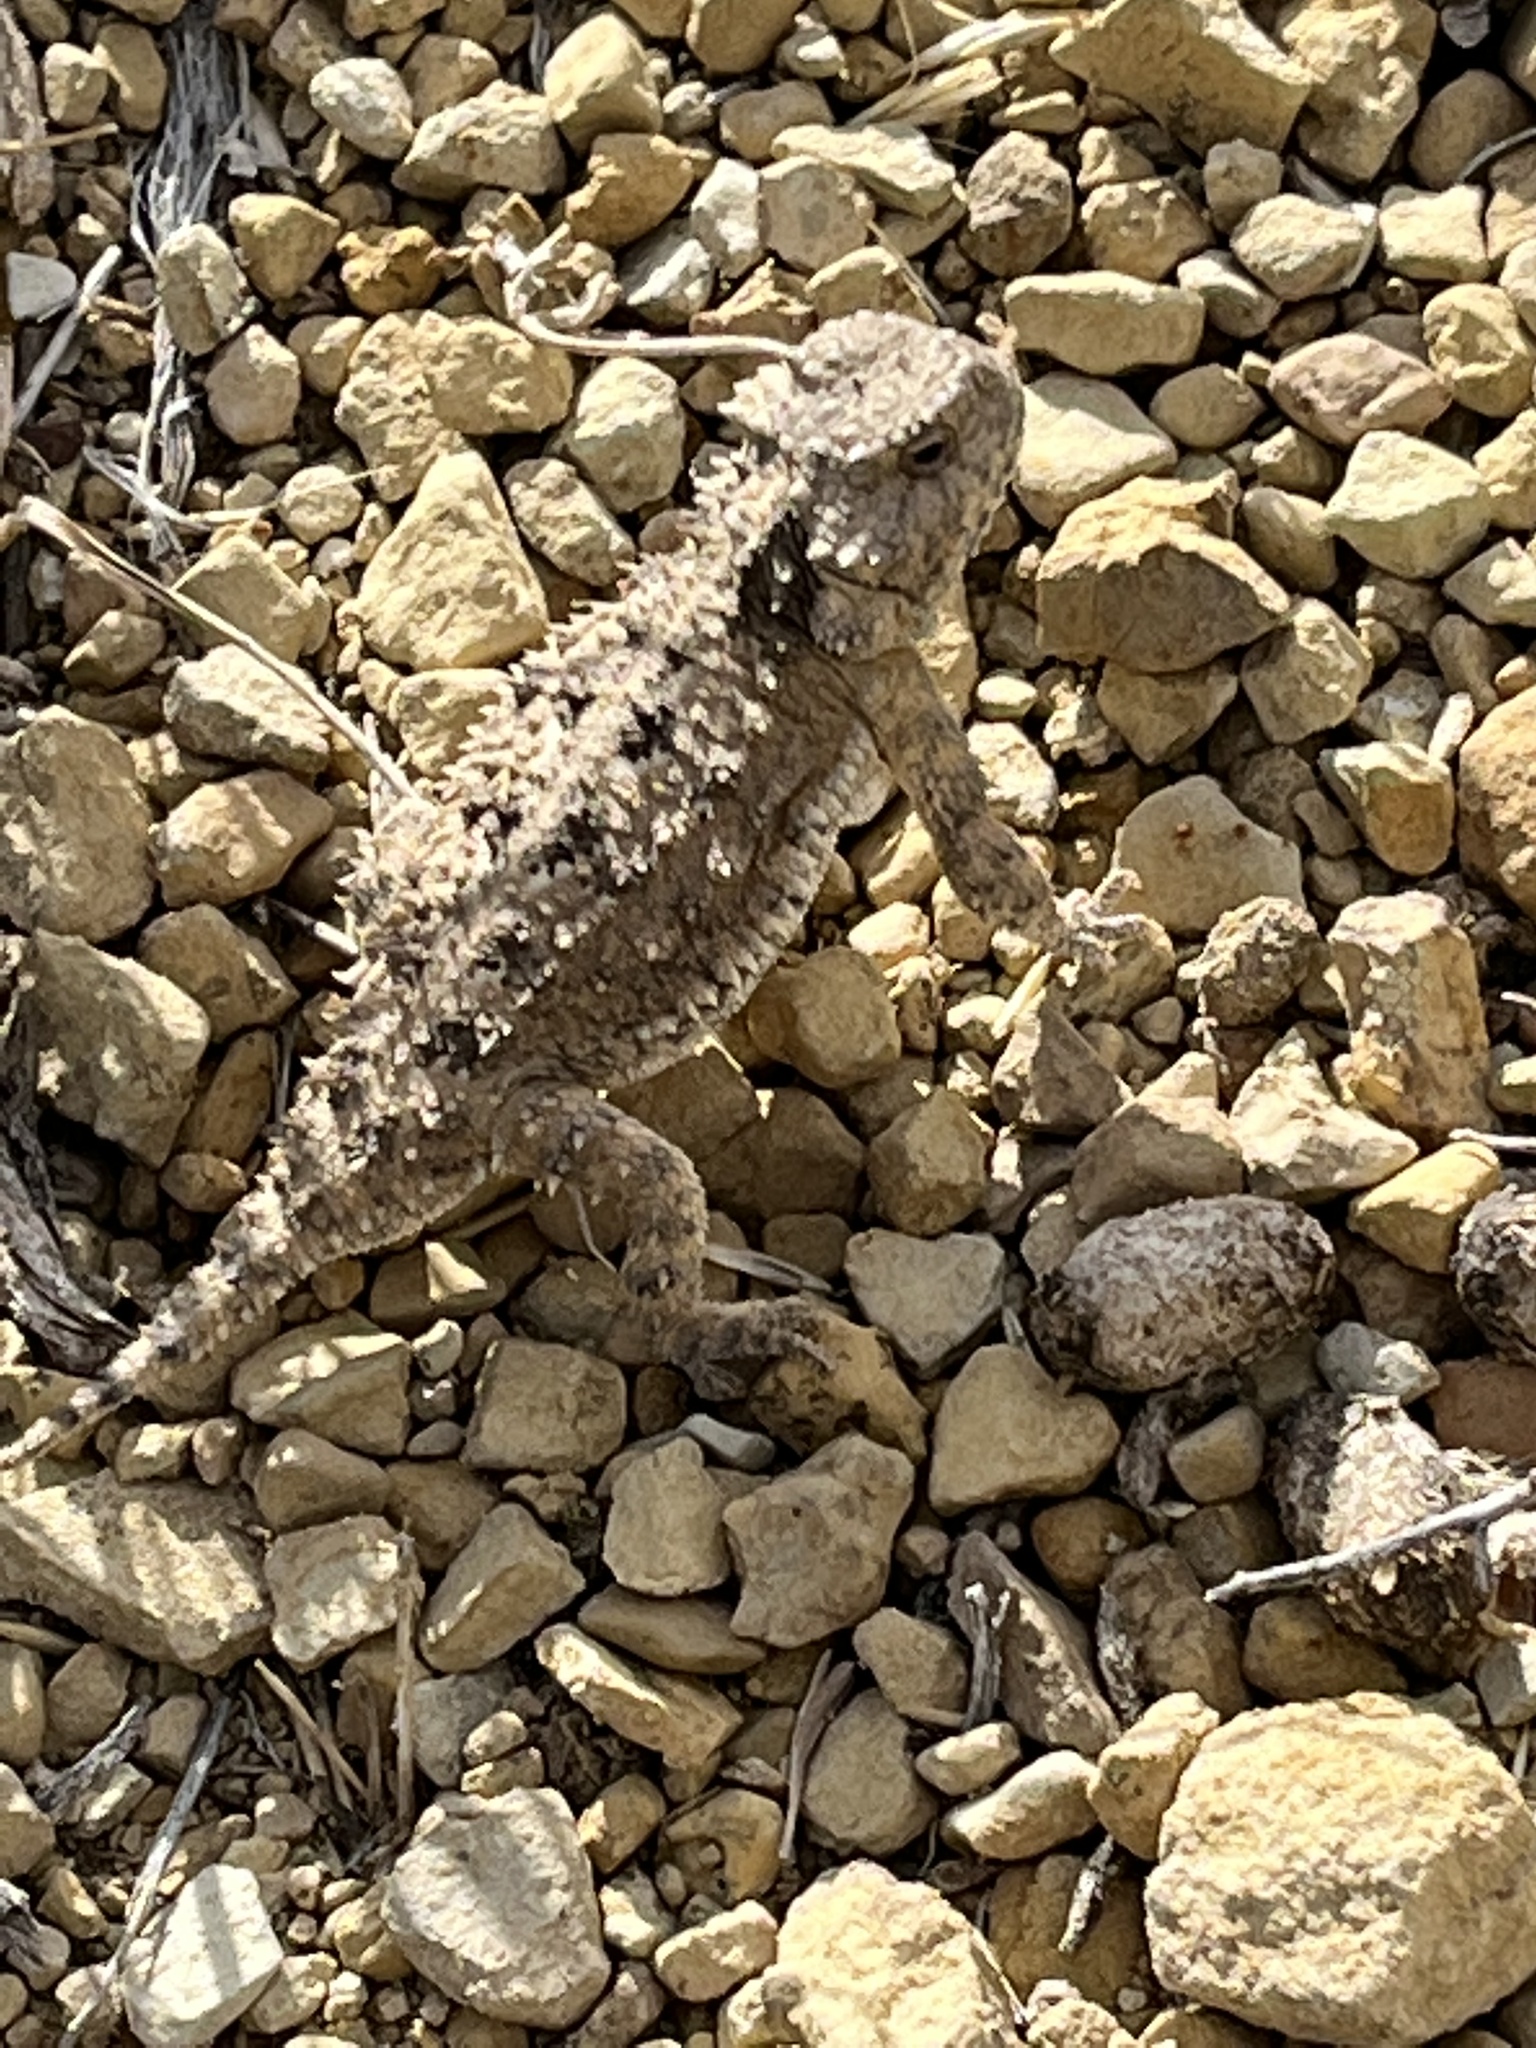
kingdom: Animalia
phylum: Chordata
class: Squamata
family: Phrynosomatidae
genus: Phrynosoma
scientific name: Phrynosoma hernandesi
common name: Greater short-horned lizard
